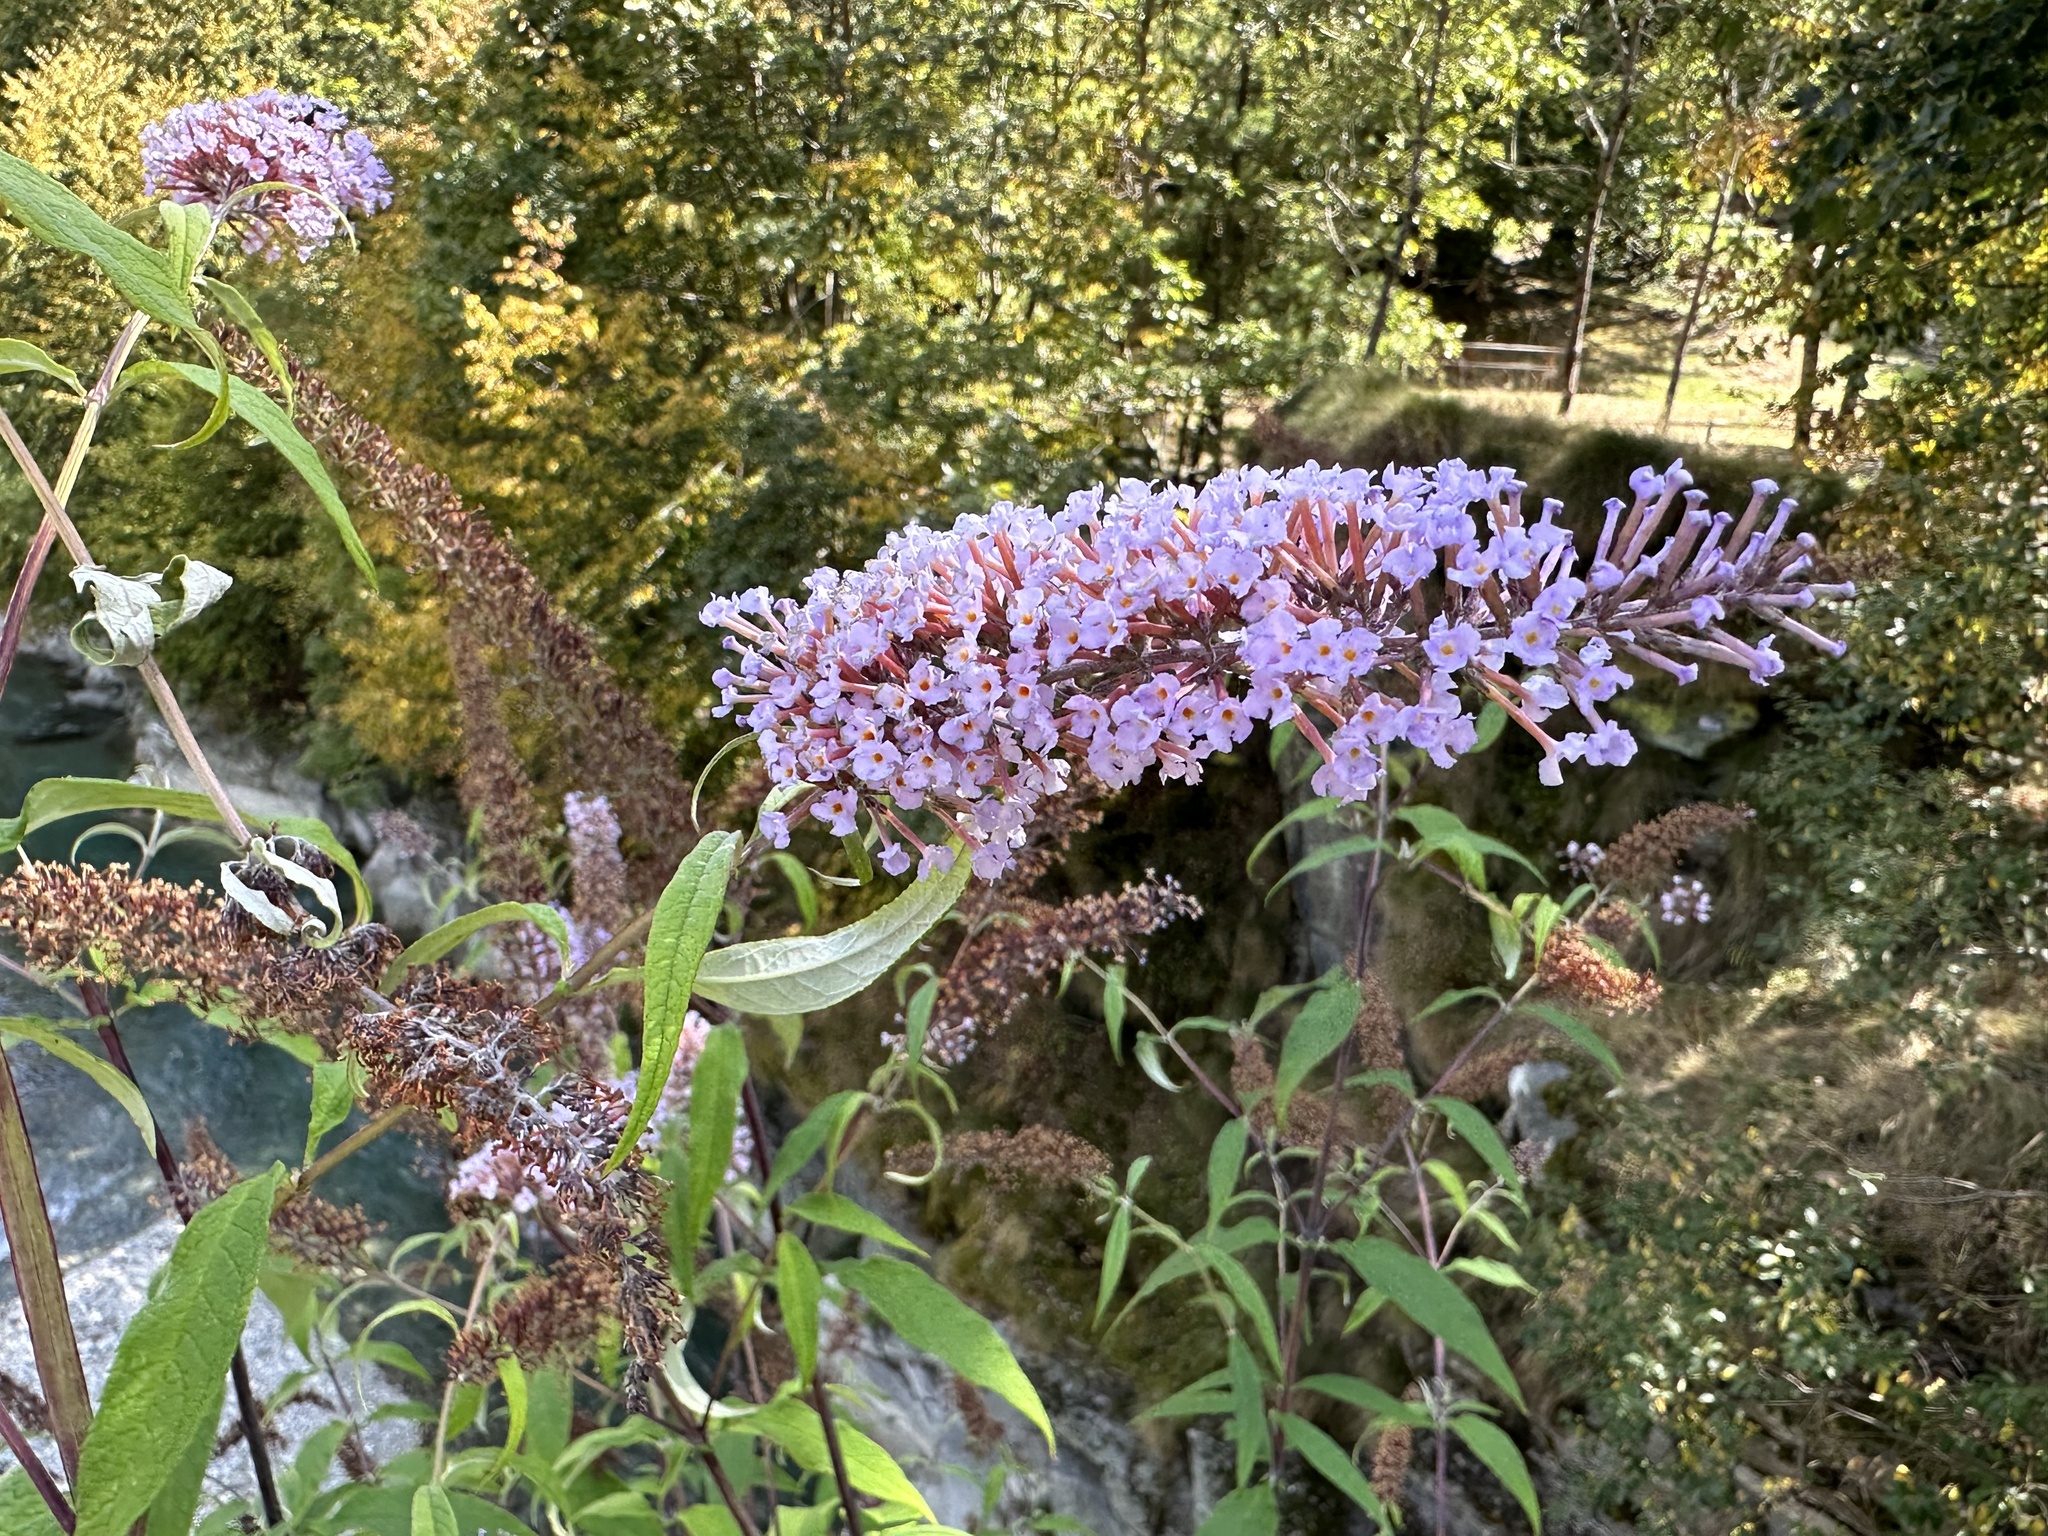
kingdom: Plantae
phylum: Tracheophyta
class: Magnoliopsida
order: Lamiales
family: Scrophulariaceae
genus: Buddleja
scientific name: Buddleja davidii
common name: Butterfly-bush
